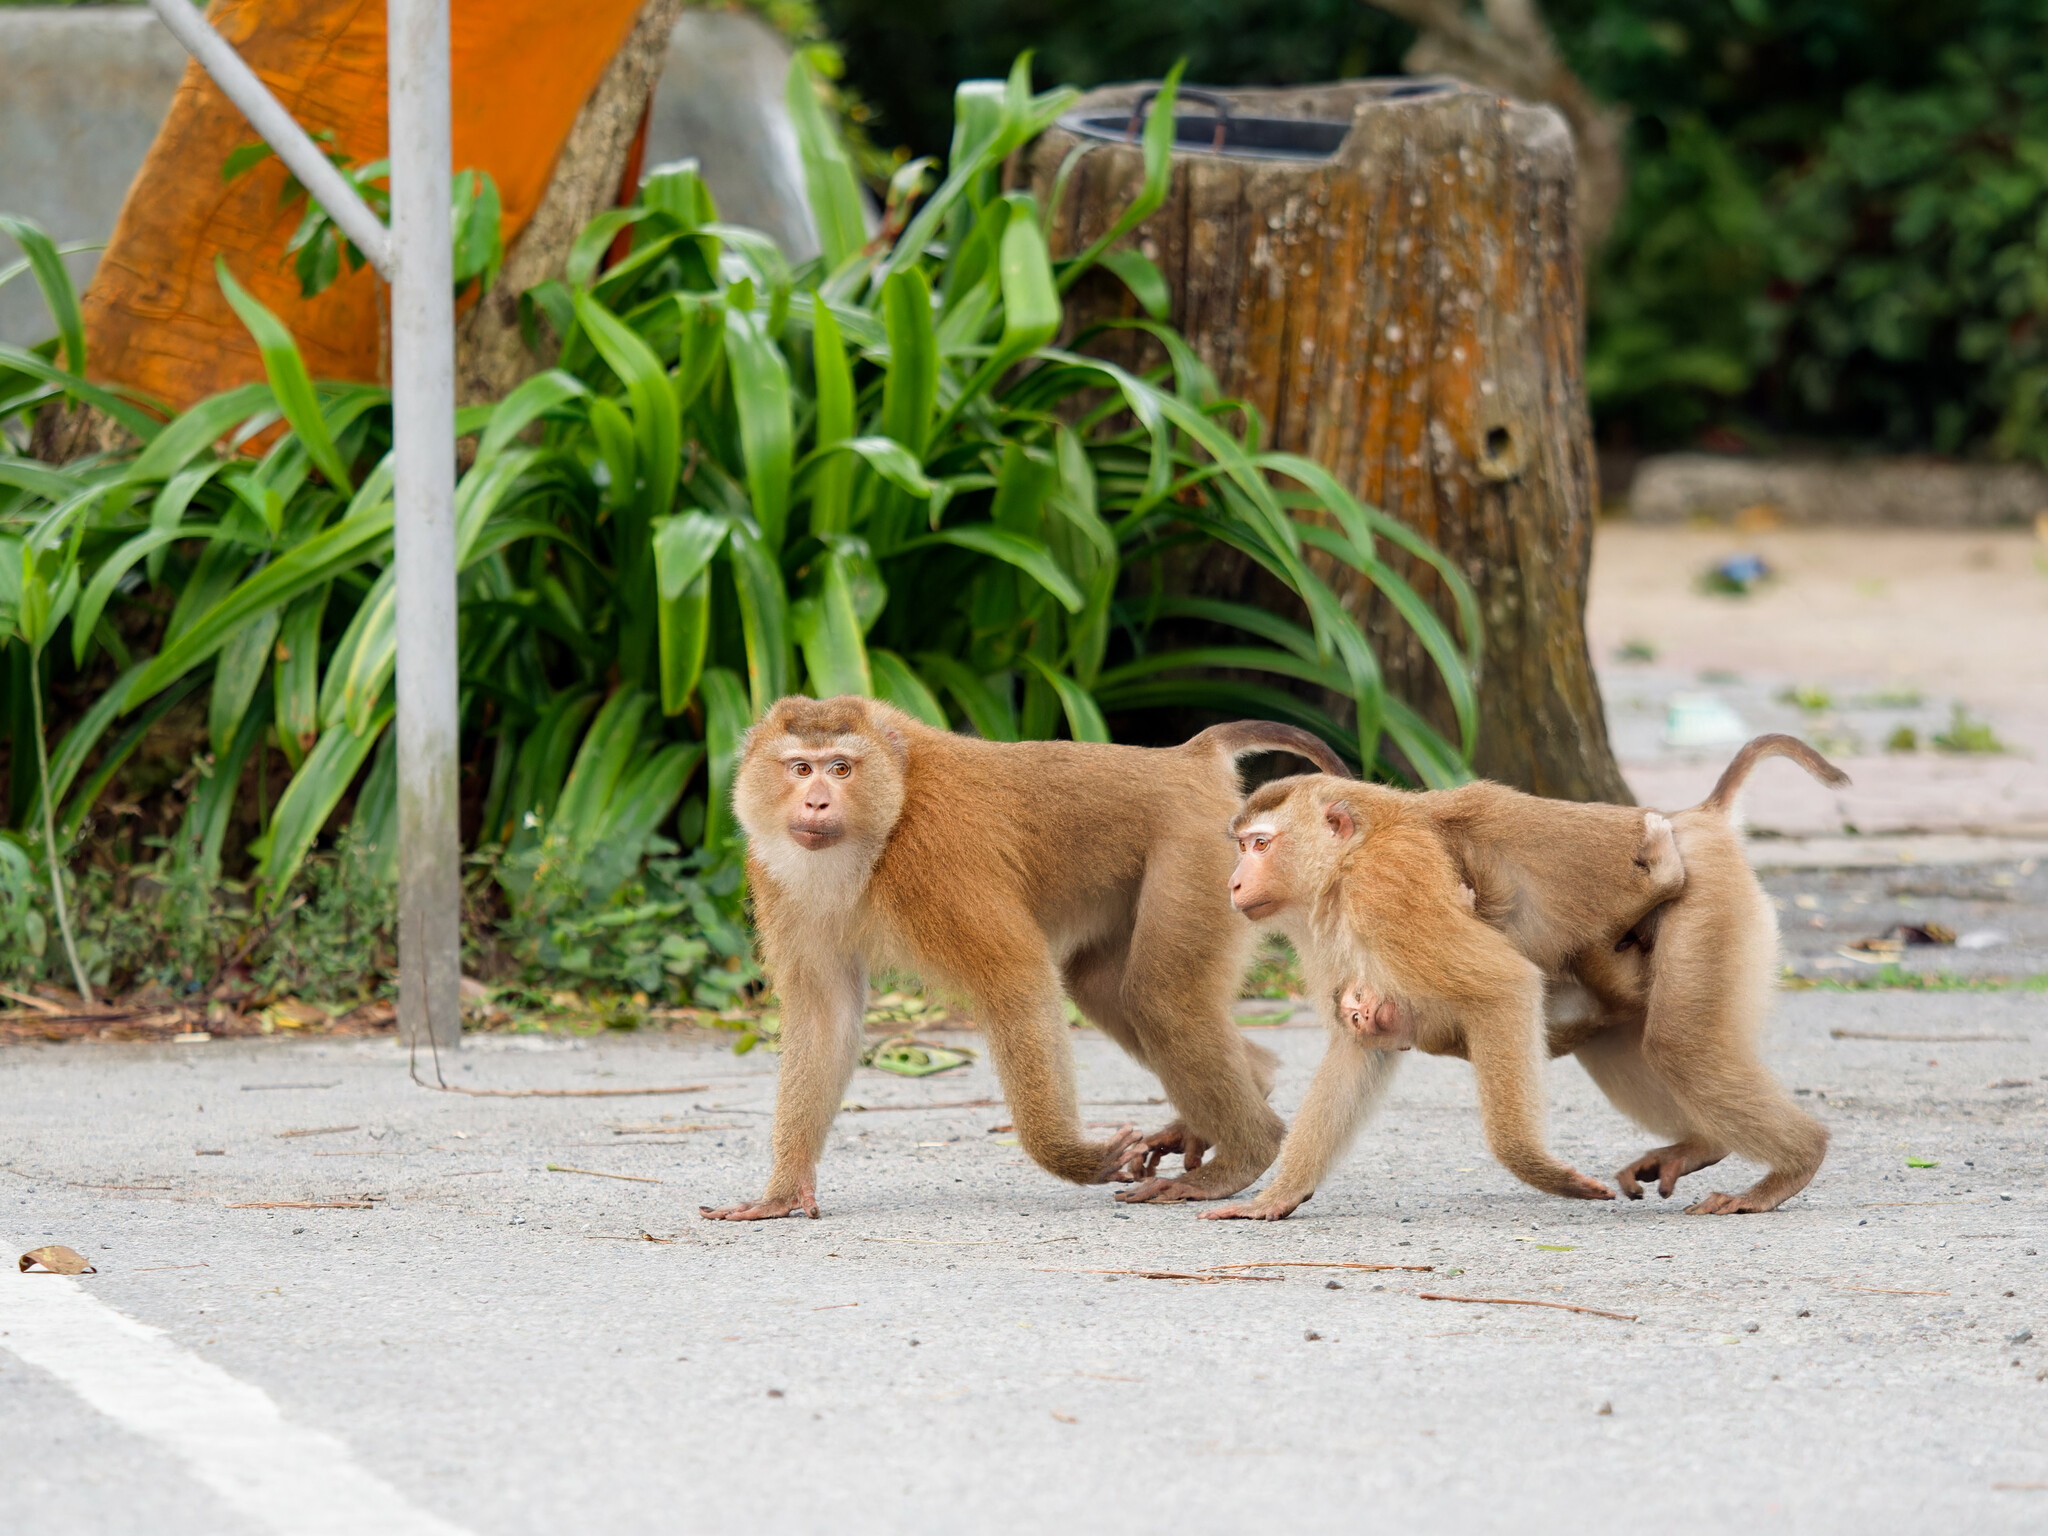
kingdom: Animalia
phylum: Chordata
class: Mammalia
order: Primates
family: Cercopithecidae
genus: Macaca
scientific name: Macaca leonina
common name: Northern pig-tailed macaque
